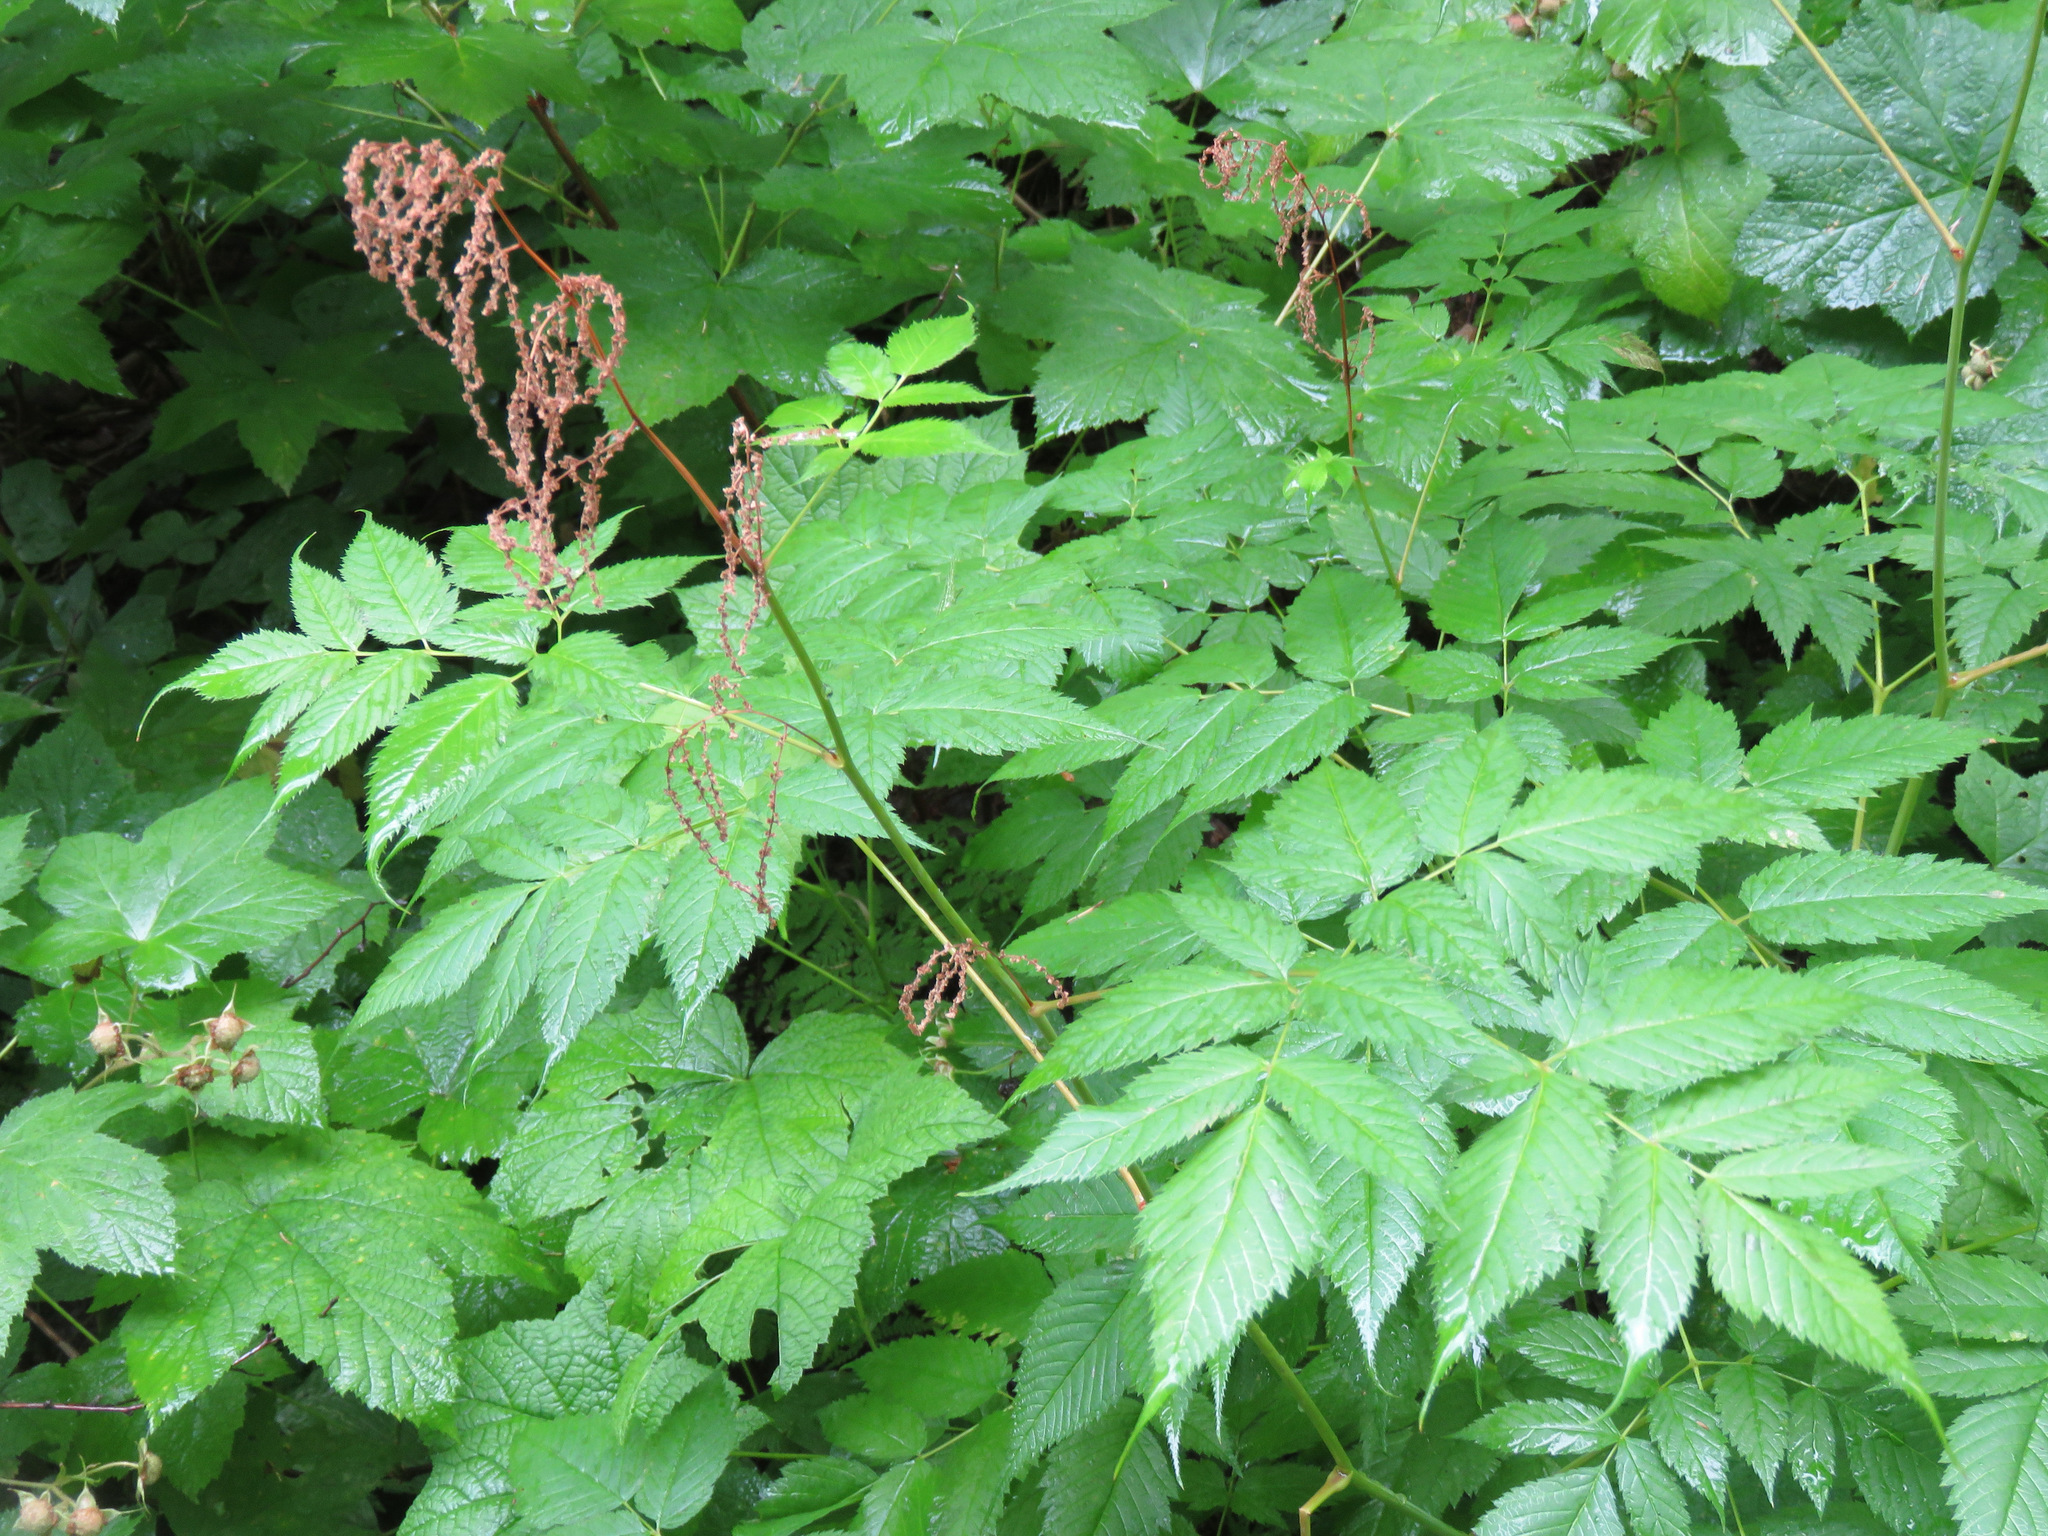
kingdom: Plantae
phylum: Tracheophyta
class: Magnoliopsida
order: Rosales
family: Rosaceae
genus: Aruncus
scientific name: Aruncus dioicus
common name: Buck's-beard
